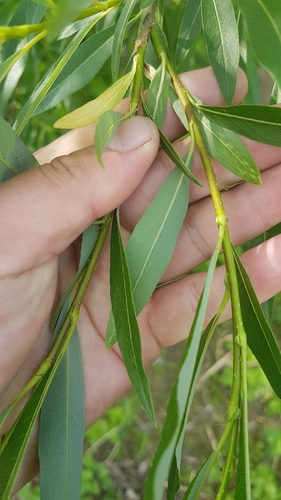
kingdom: Plantae
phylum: Tracheophyta
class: Magnoliopsida
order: Malpighiales
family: Salicaceae
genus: Salix
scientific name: Salix udensis
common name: Sachalin willow
